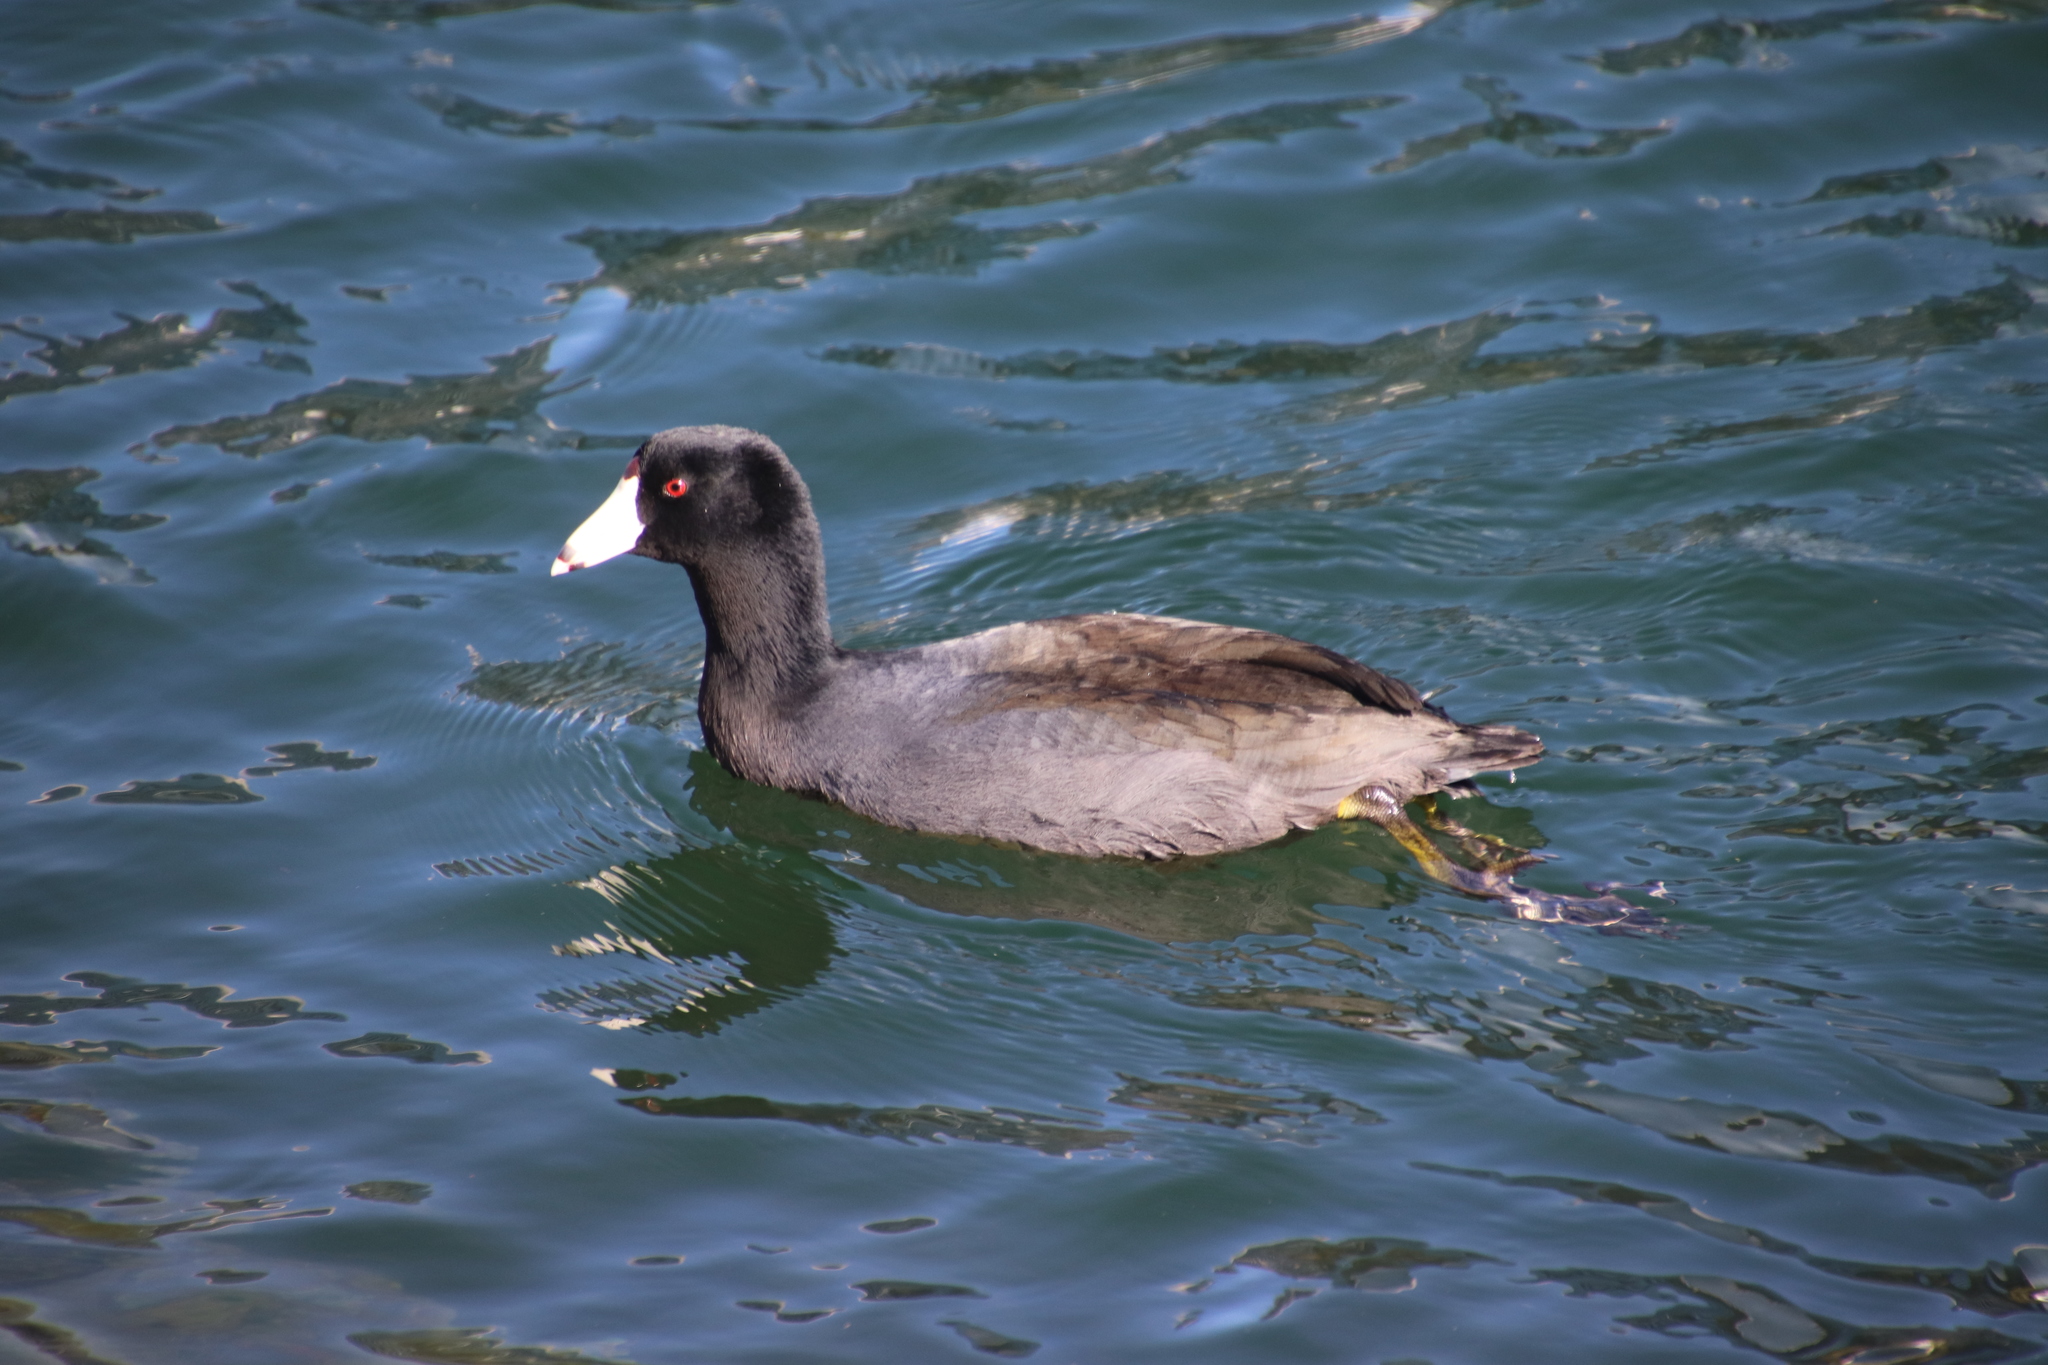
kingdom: Animalia
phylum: Chordata
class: Aves
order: Gruiformes
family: Rallidae
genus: Fulica
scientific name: Fulica americana
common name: American coot
